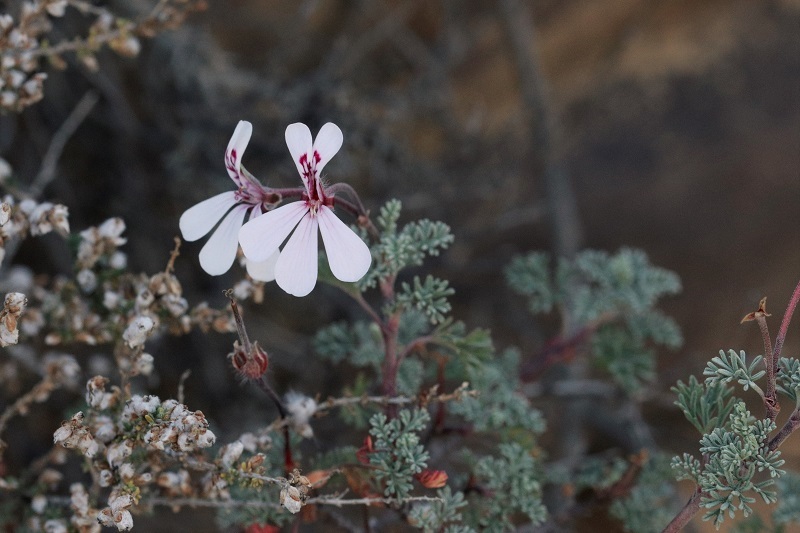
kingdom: Plantae
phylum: Tracheophyta
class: Magnoliopsida
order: Geraniales
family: Geraniaceae
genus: Pelargonium
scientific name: Pelargonium abrotanifolium
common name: Southernwood geranium
